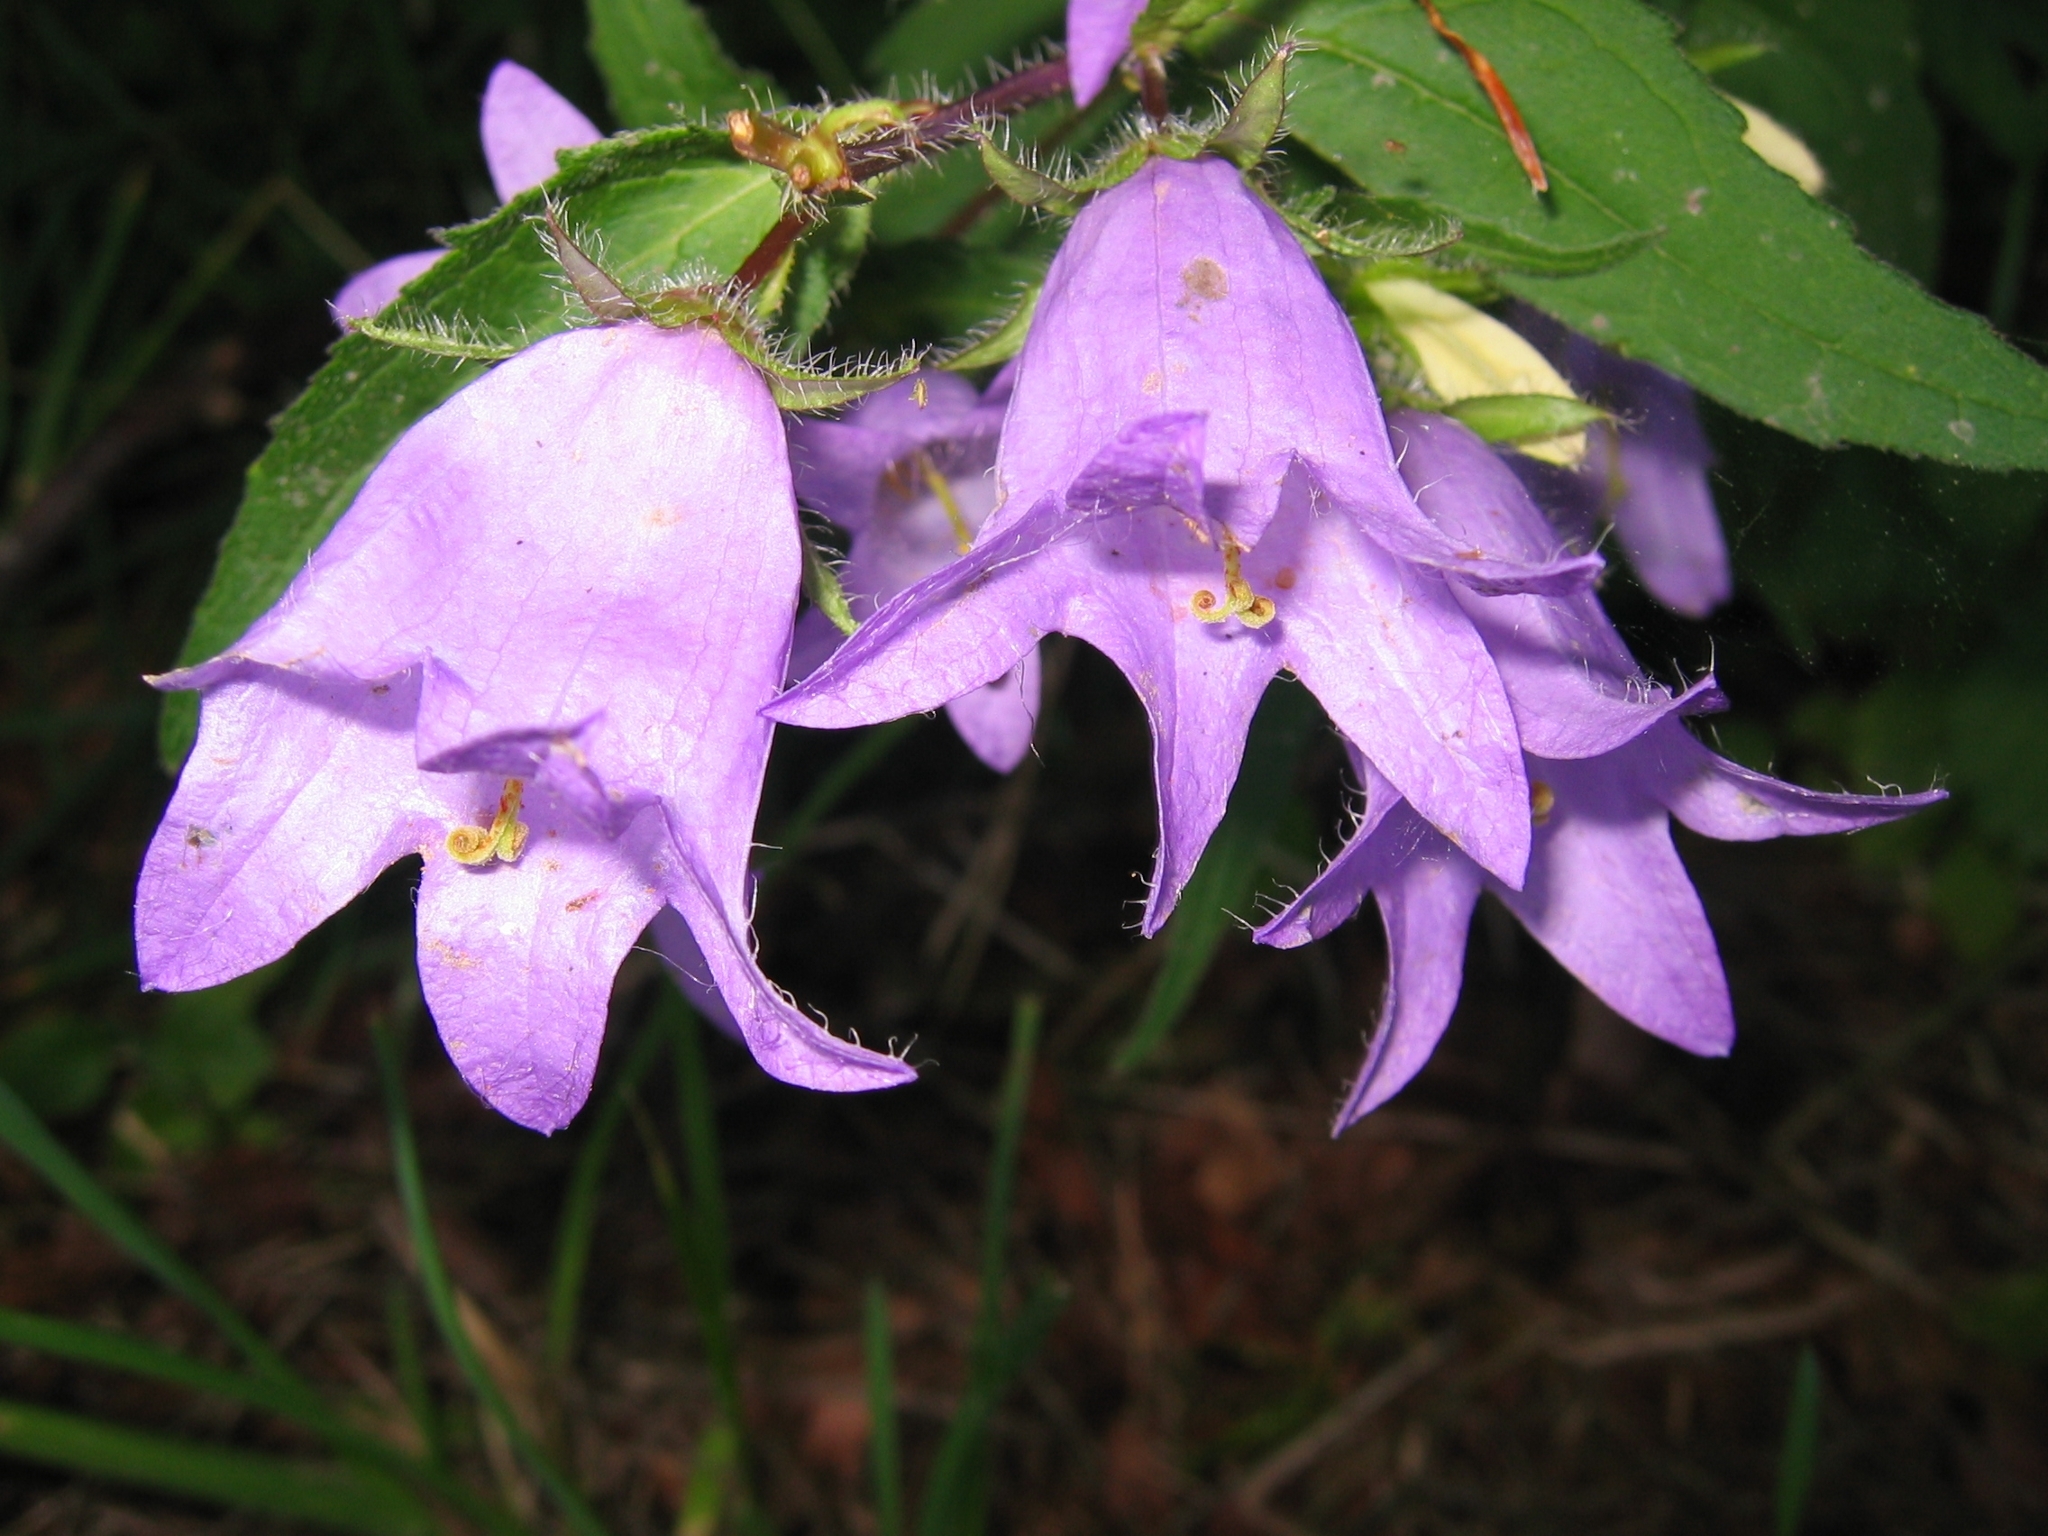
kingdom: Plantae
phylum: Tracheophyta
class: Magnoliopsida
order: Asterales
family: Campanulaceae
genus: Campanula
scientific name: Campanula trachelium
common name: Nettle-leaved bellflower
